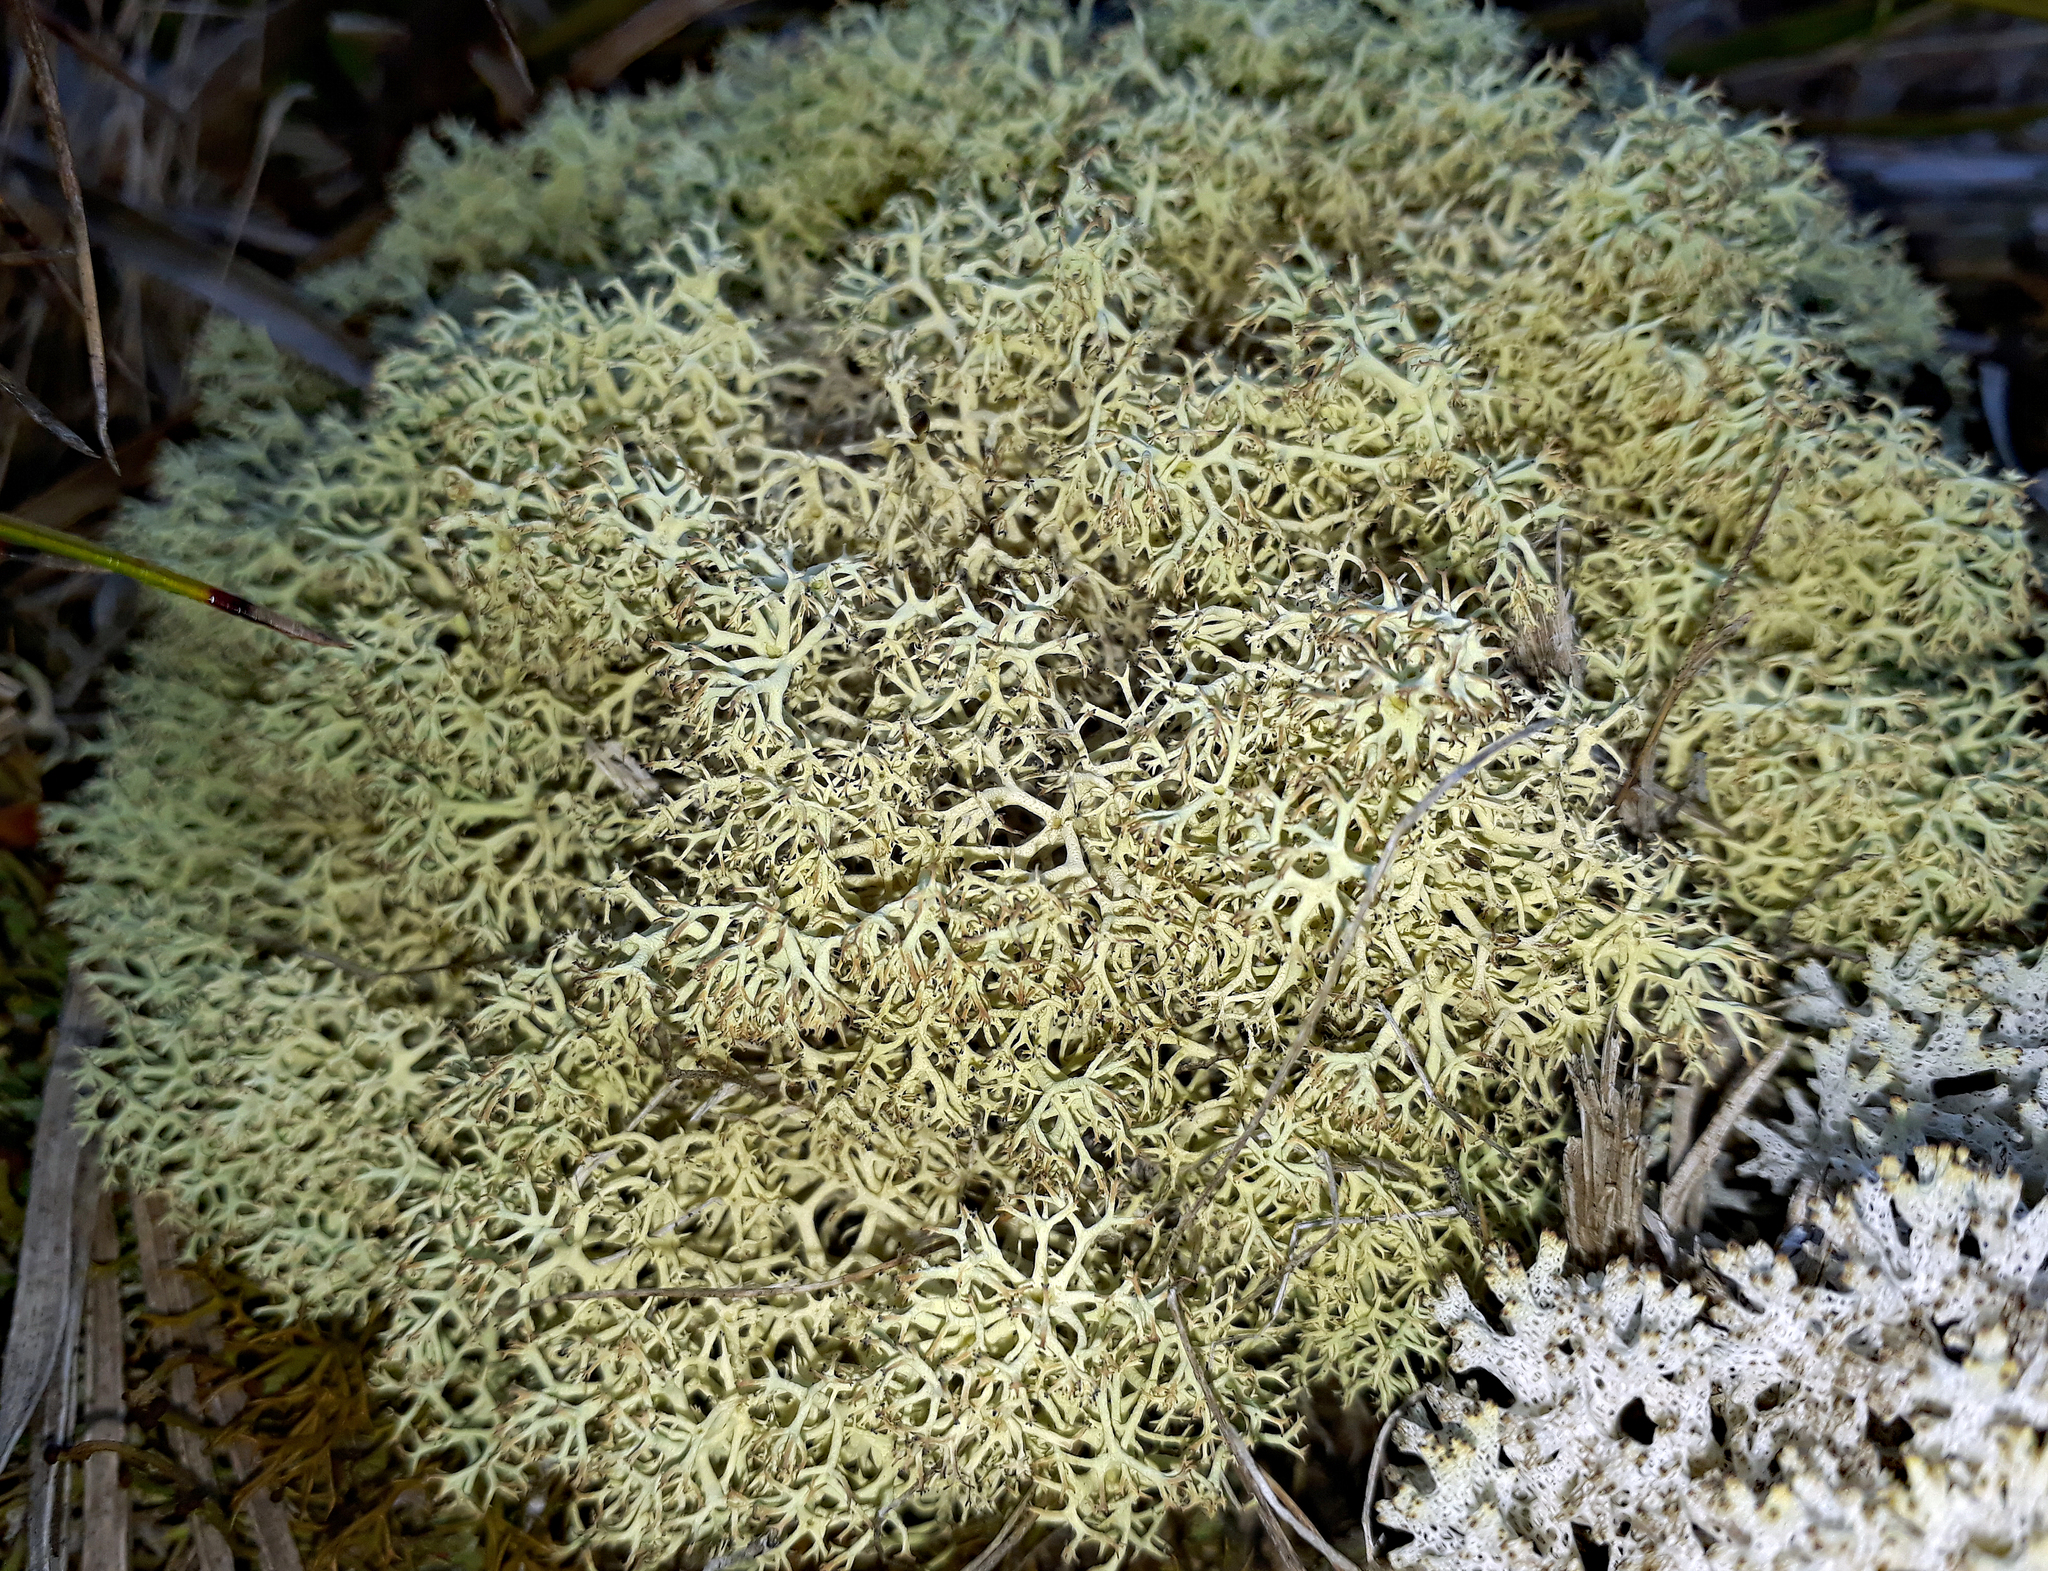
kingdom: Fungi
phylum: Ascomycota
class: Lecanoromycetes
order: Lecanorales
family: Cladoniaceae
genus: Cladonia
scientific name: Cladonia confusa
